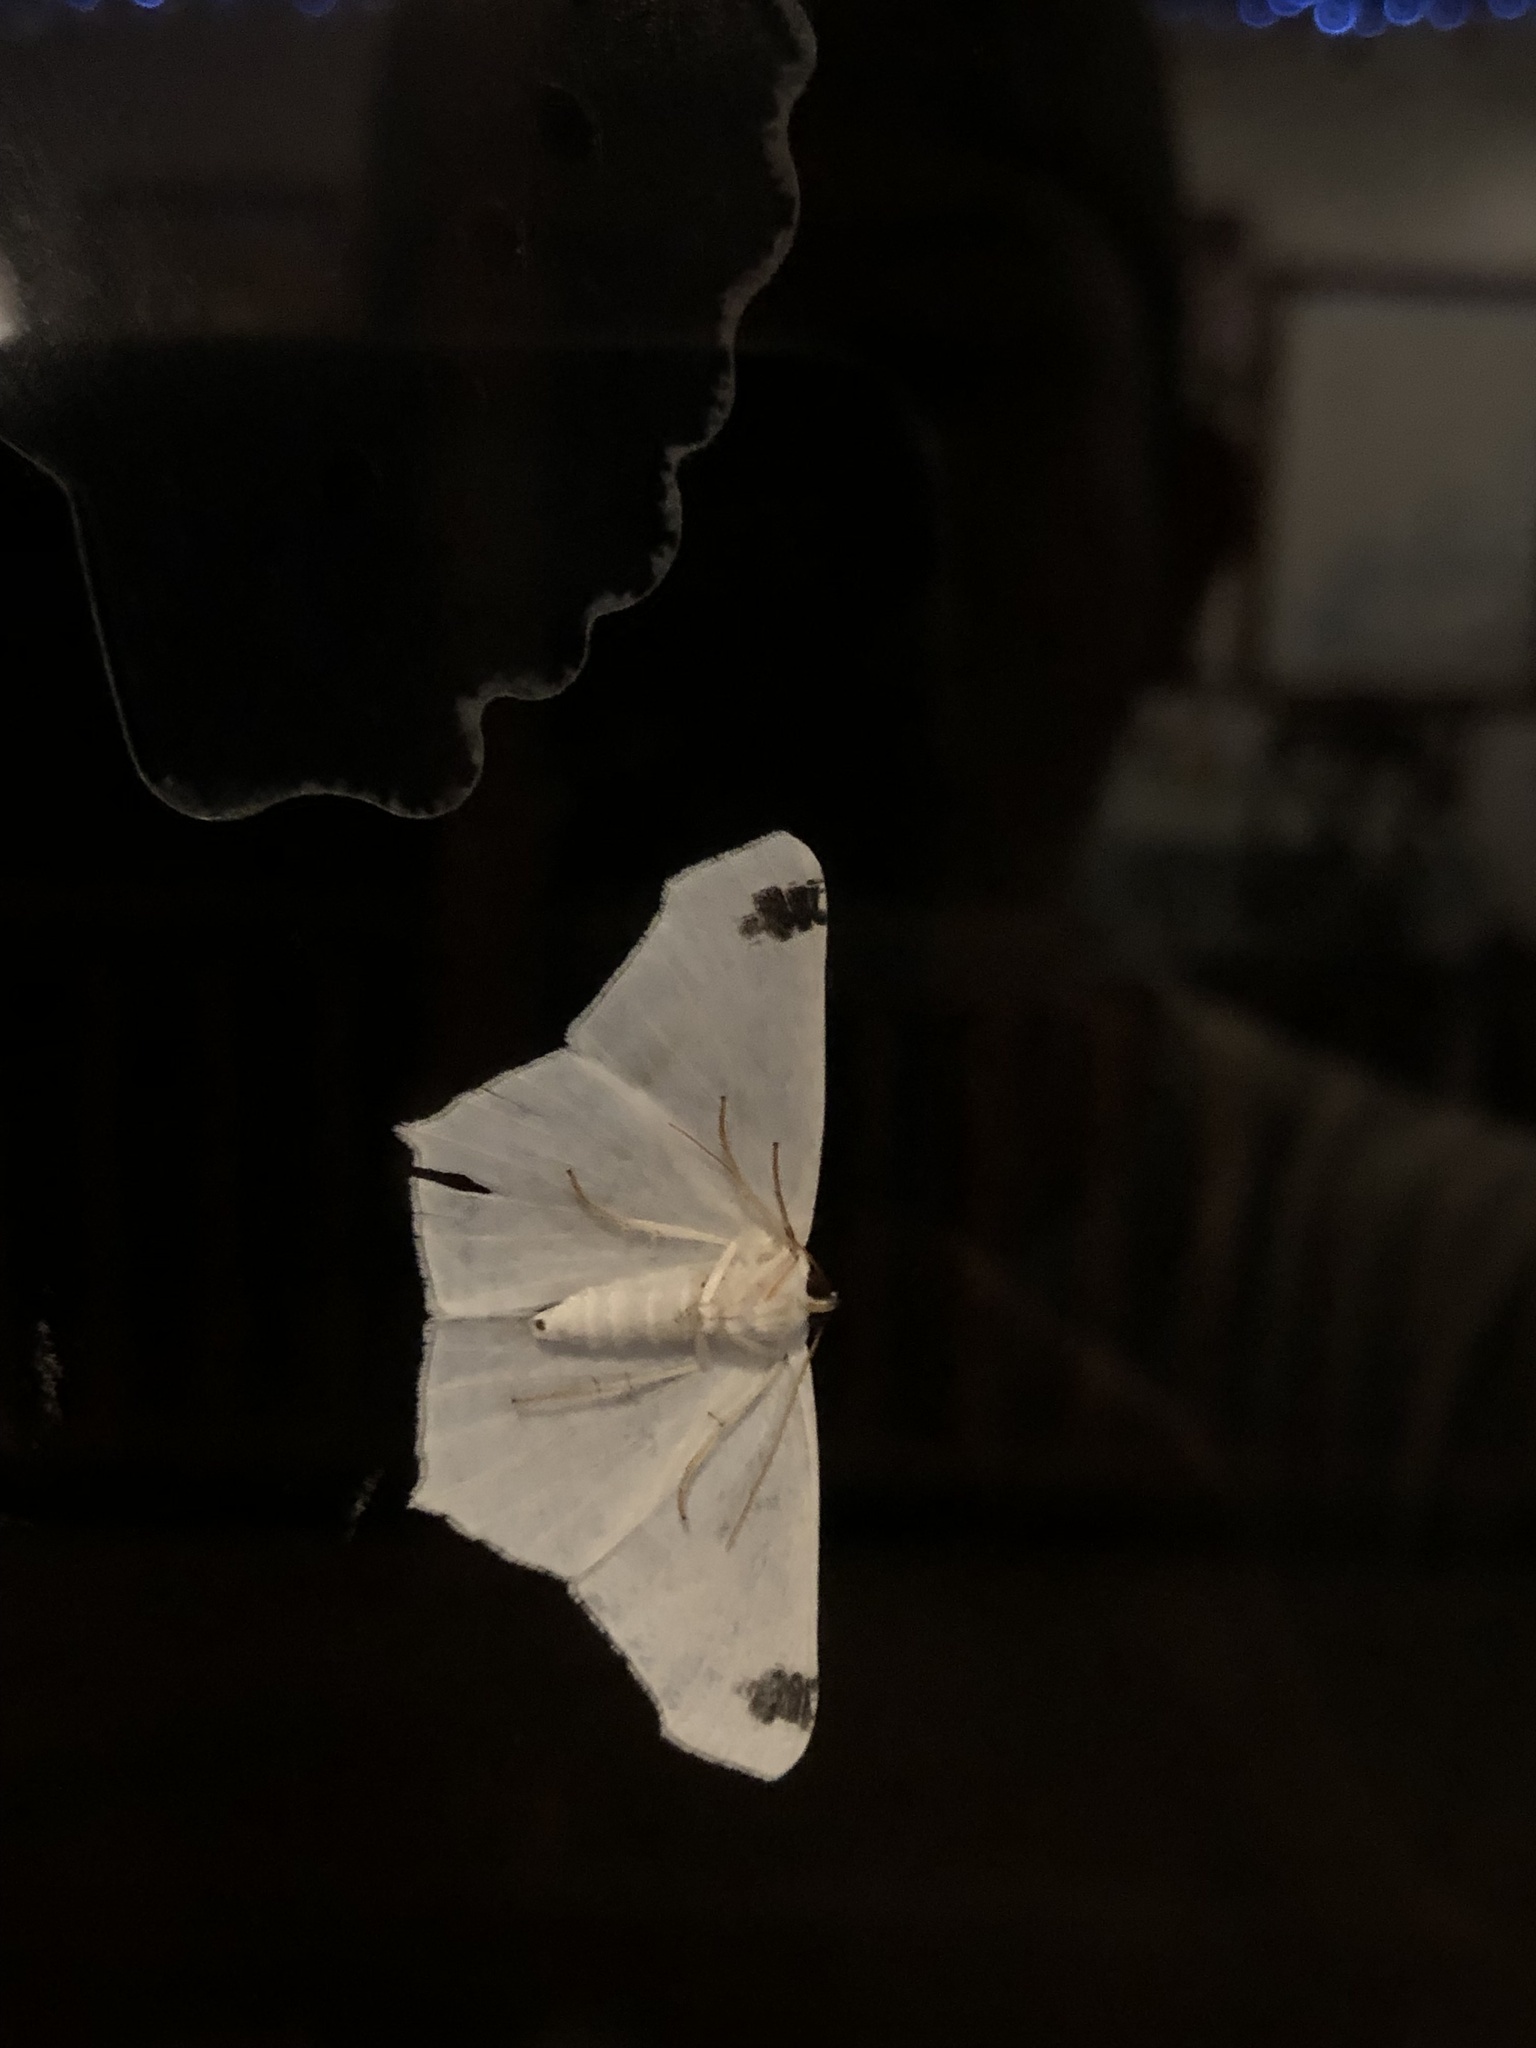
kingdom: Animalia
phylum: Arthropoda
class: Insecta
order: Lepidoptera
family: Geometridae
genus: Sericoptera
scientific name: Sericoptera mahometaria
